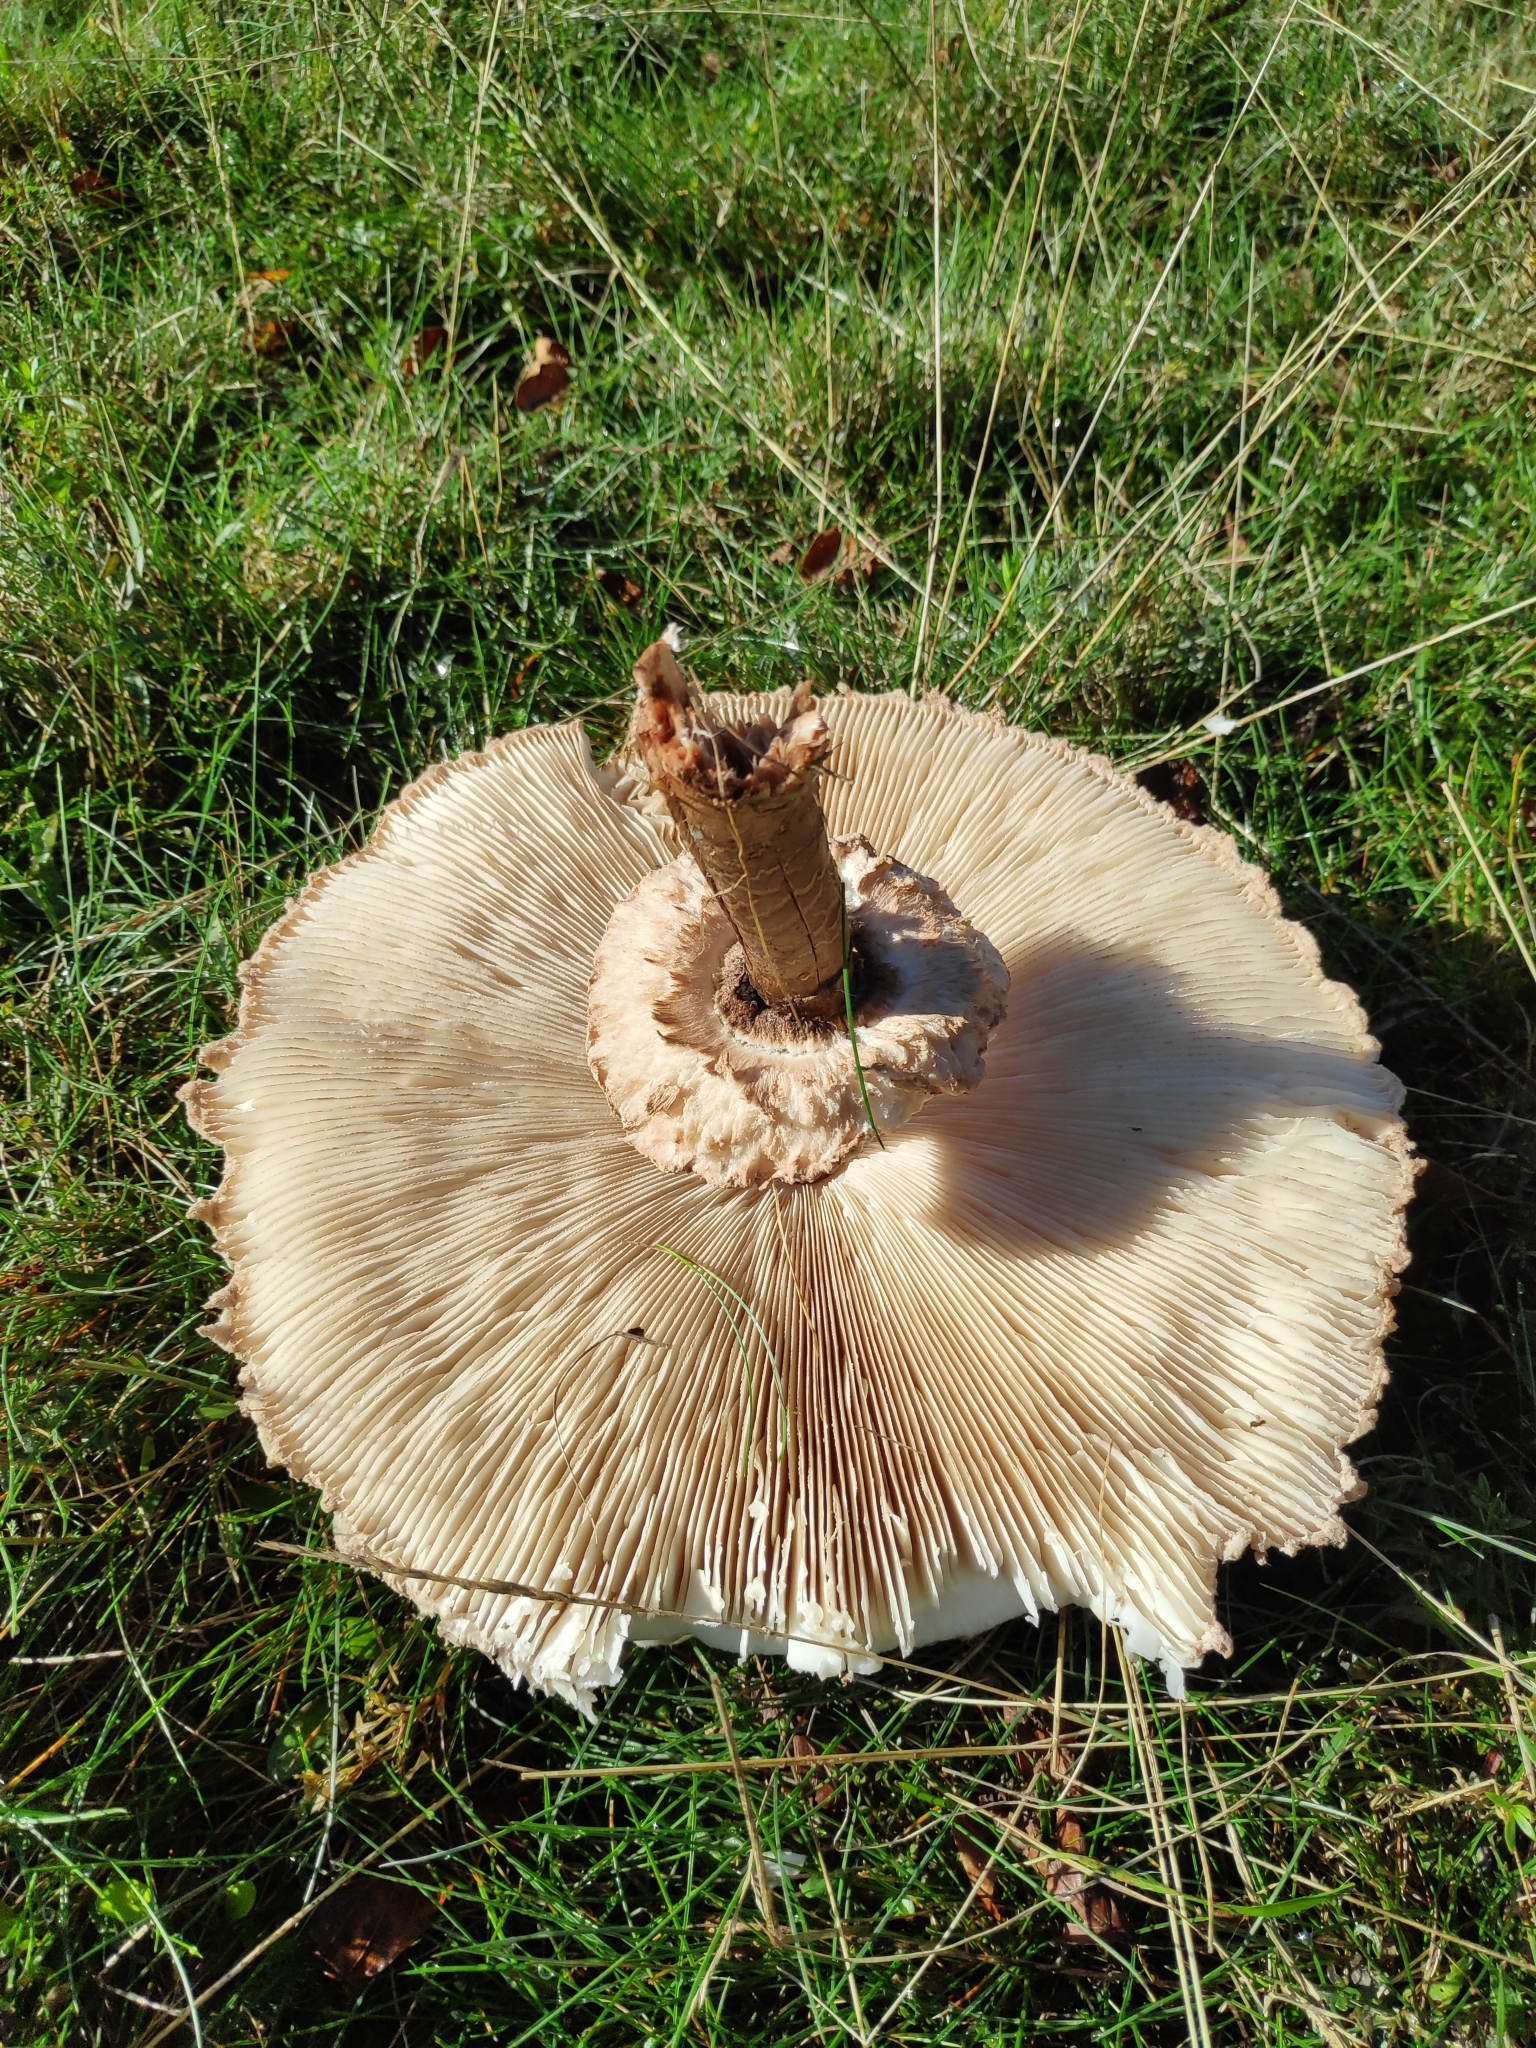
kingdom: Fungi
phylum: Basidiomycota
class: Agaricomycetes
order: Agaricales
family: Agaricaceae
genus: Macrolepiota
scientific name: Macrolepiota procera
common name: Parasol
